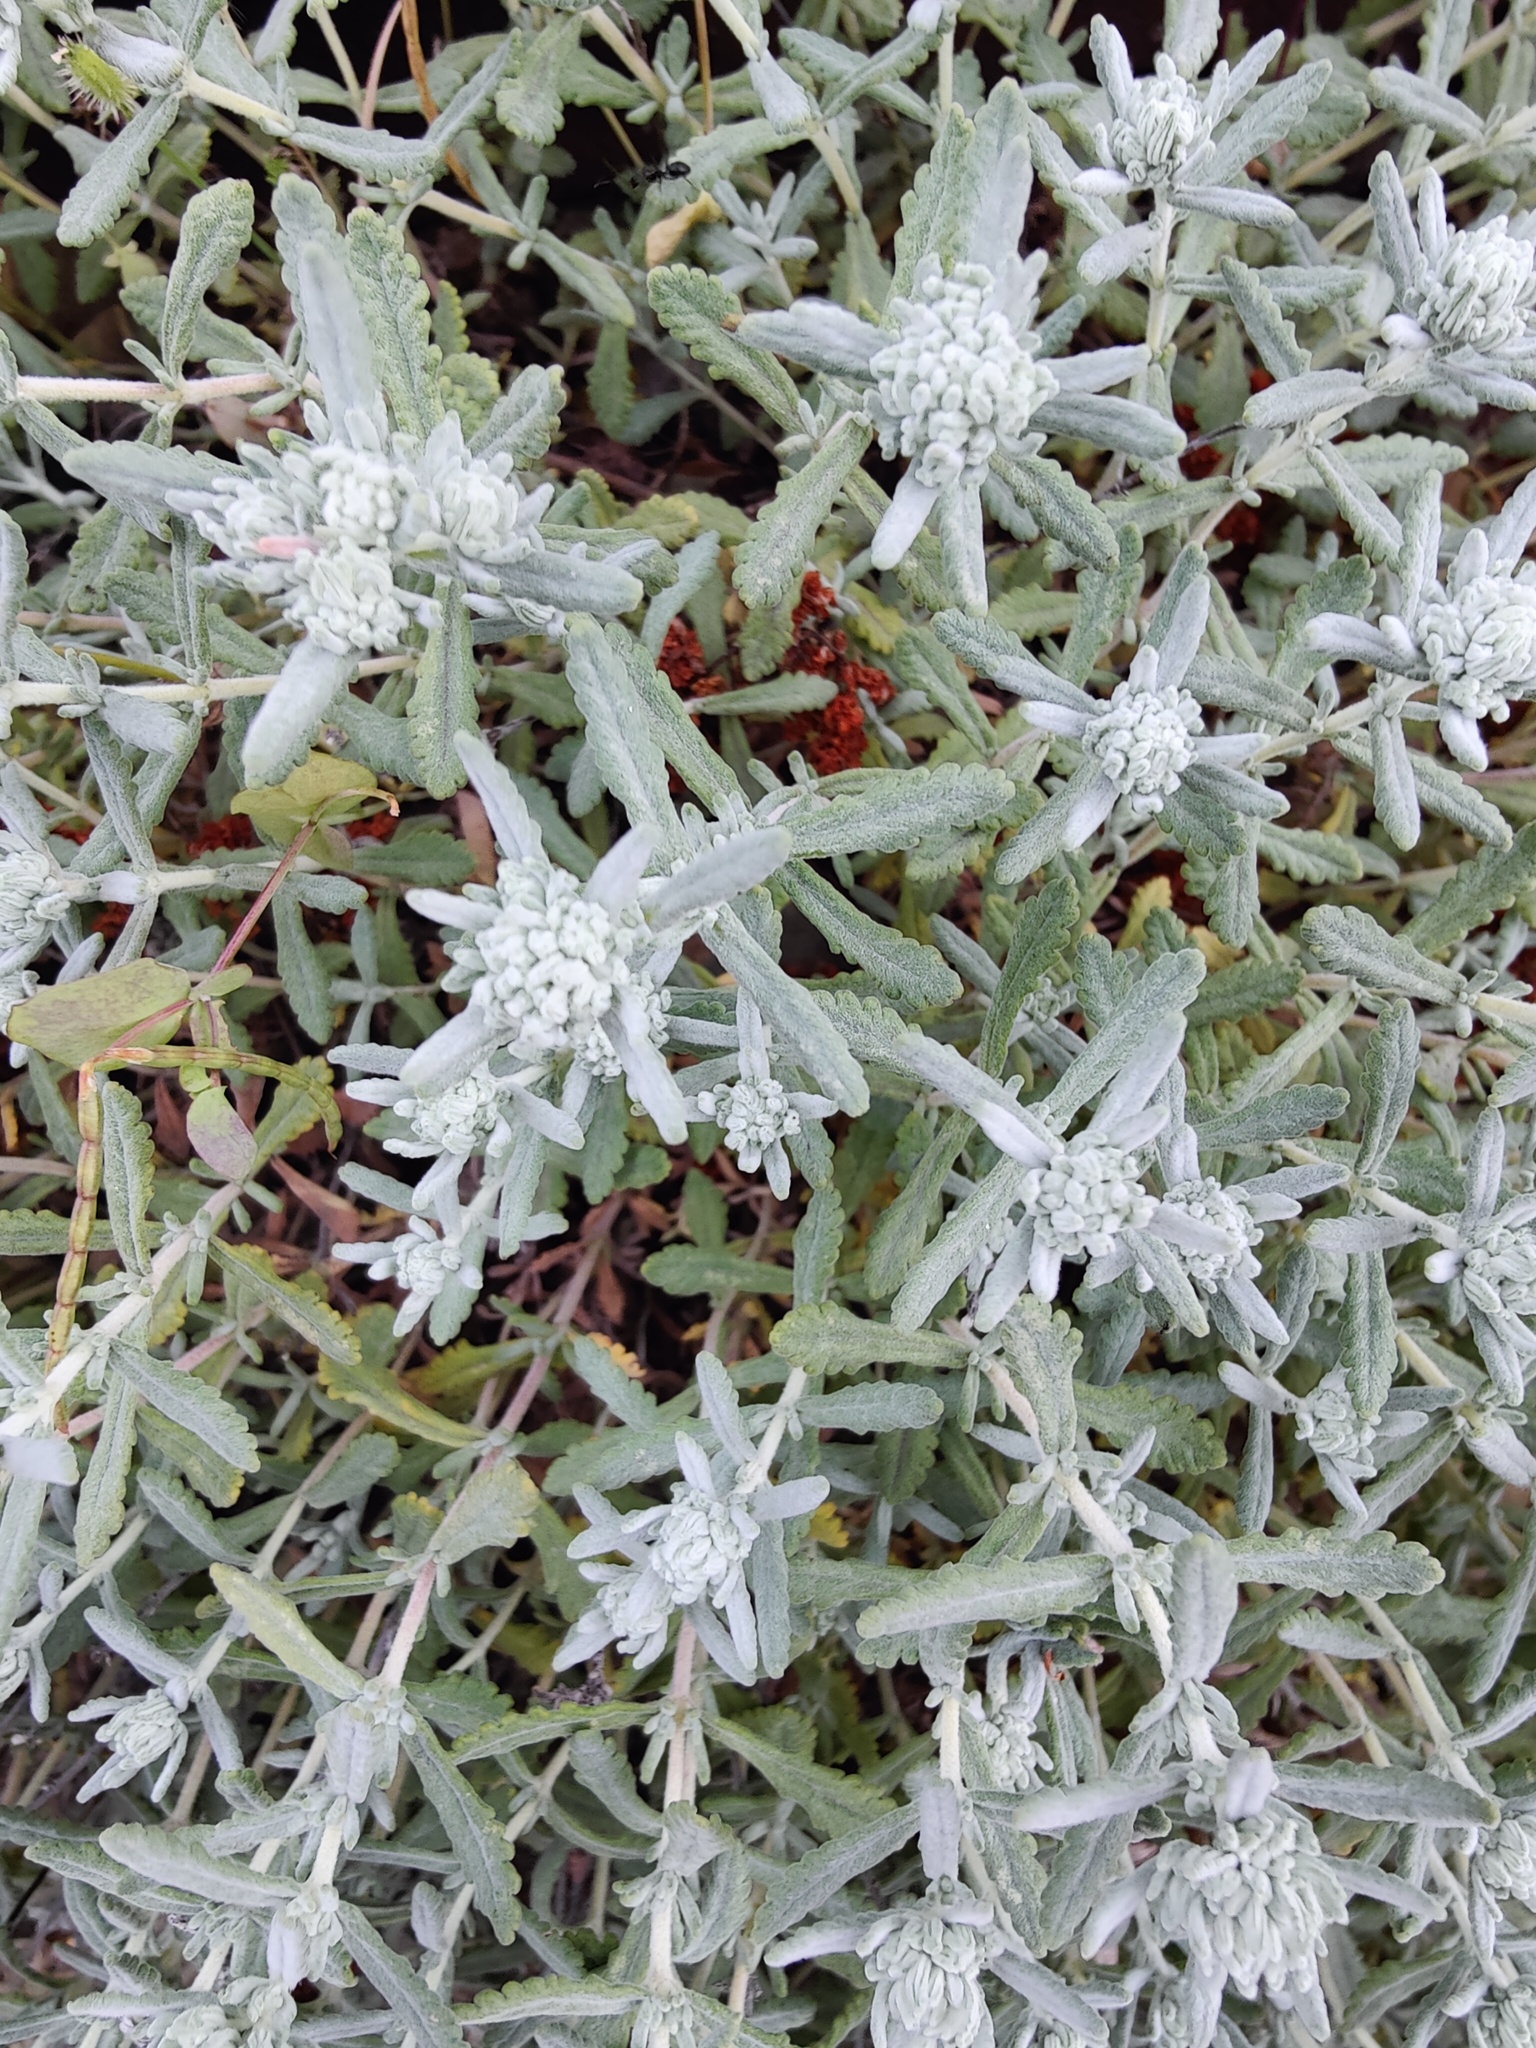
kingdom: Plantae
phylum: Tracheophyta
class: Magnoliopsida
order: Lamiales
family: Lamiaceae
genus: Teucrium
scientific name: Teucrium polium
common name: Poley
